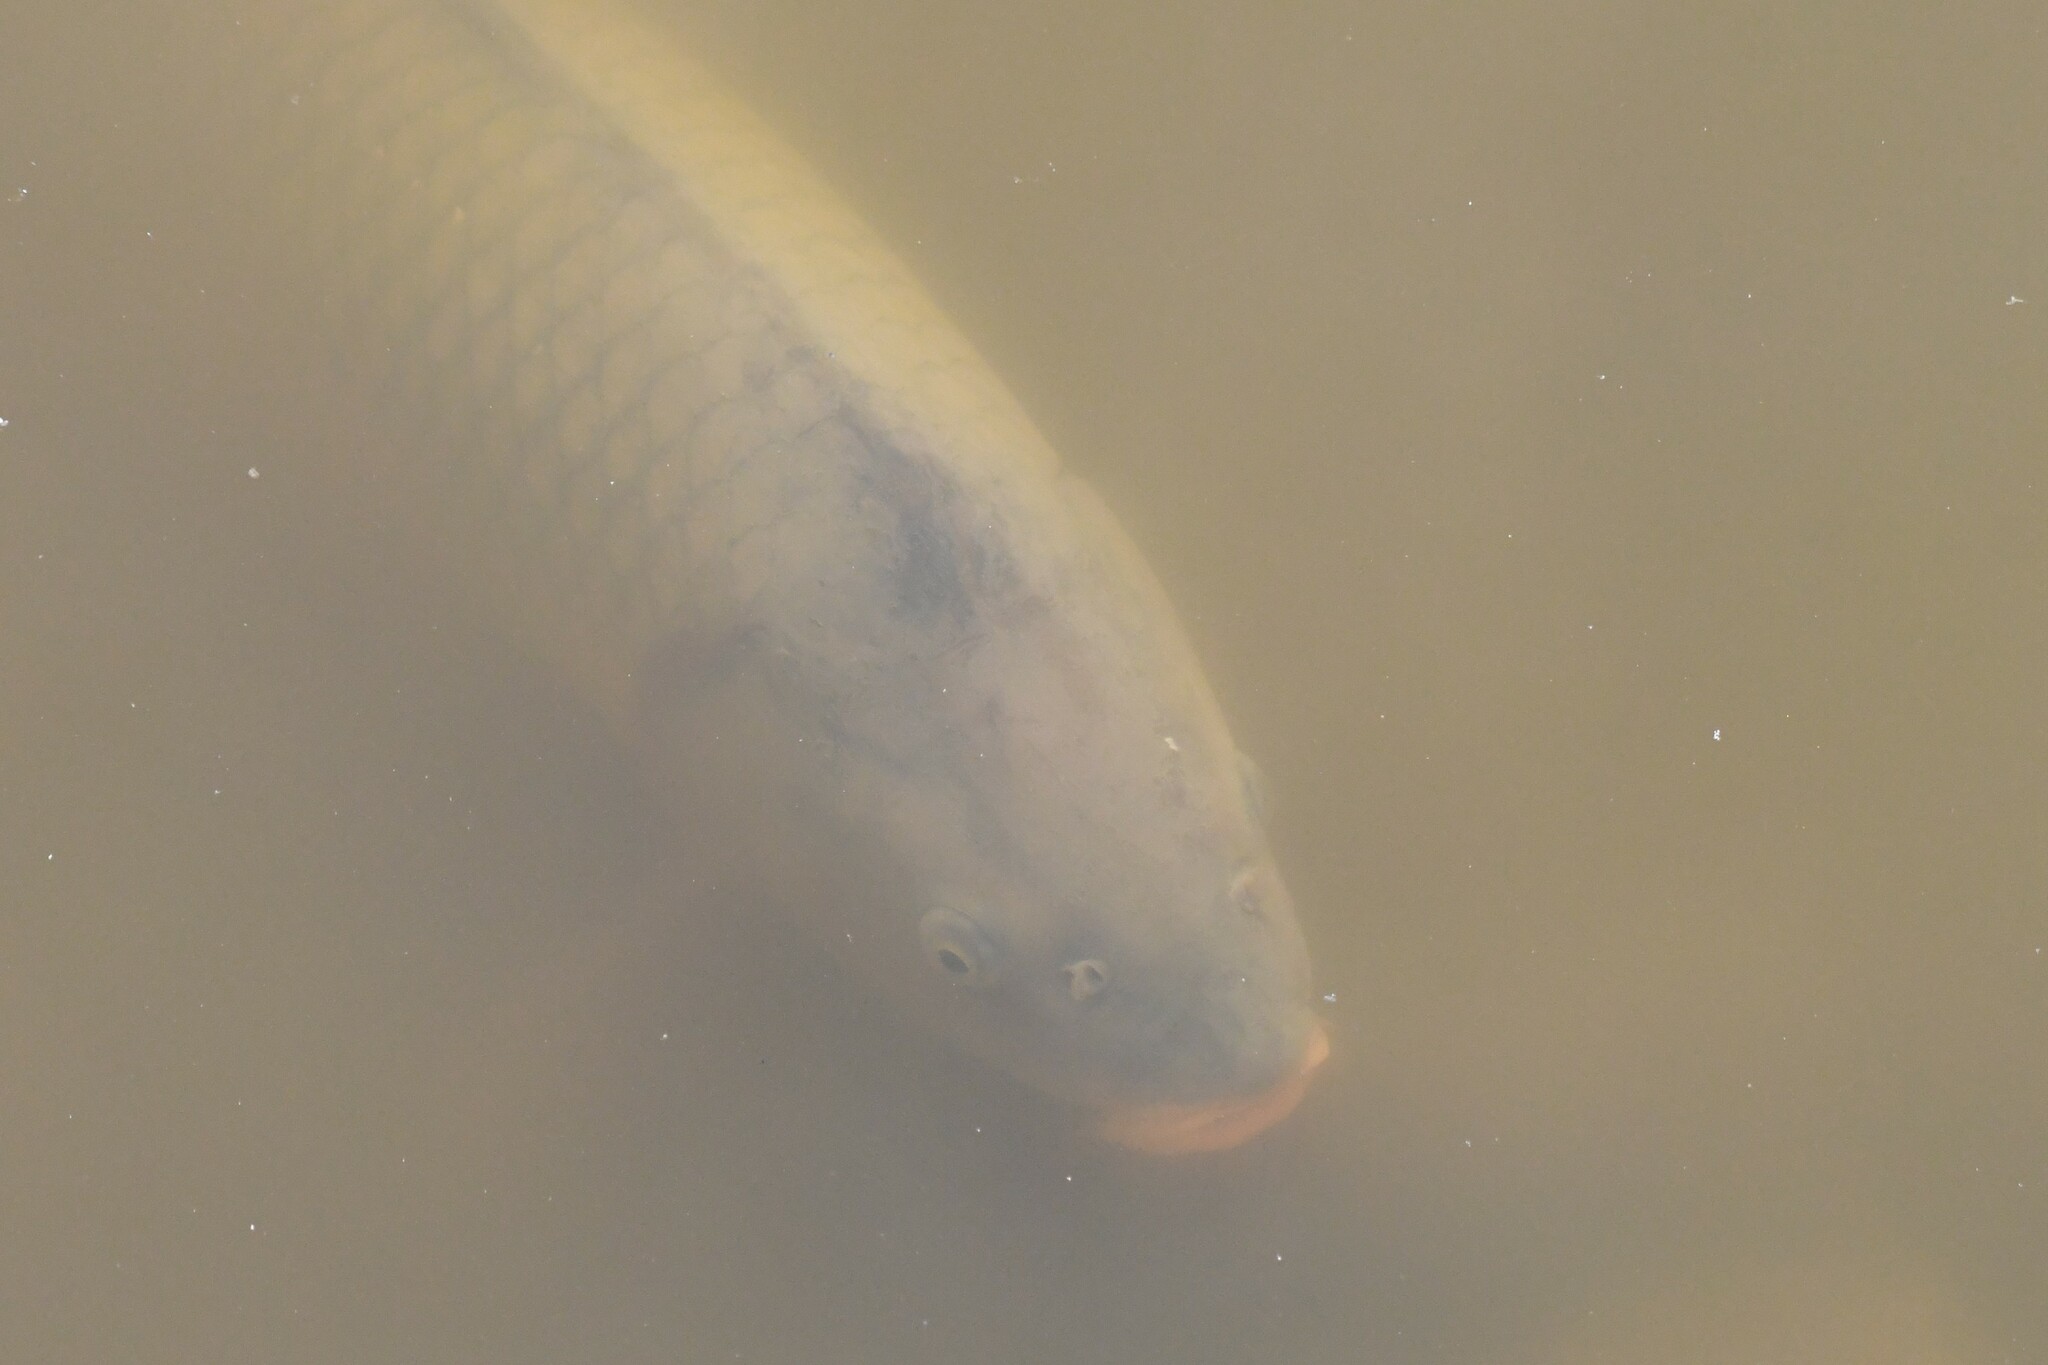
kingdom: Animalia
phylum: Chordata
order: Cypriniformes
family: Cyprinidae
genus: Cyprinus
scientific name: Cyprinus carpio
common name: Common carp
